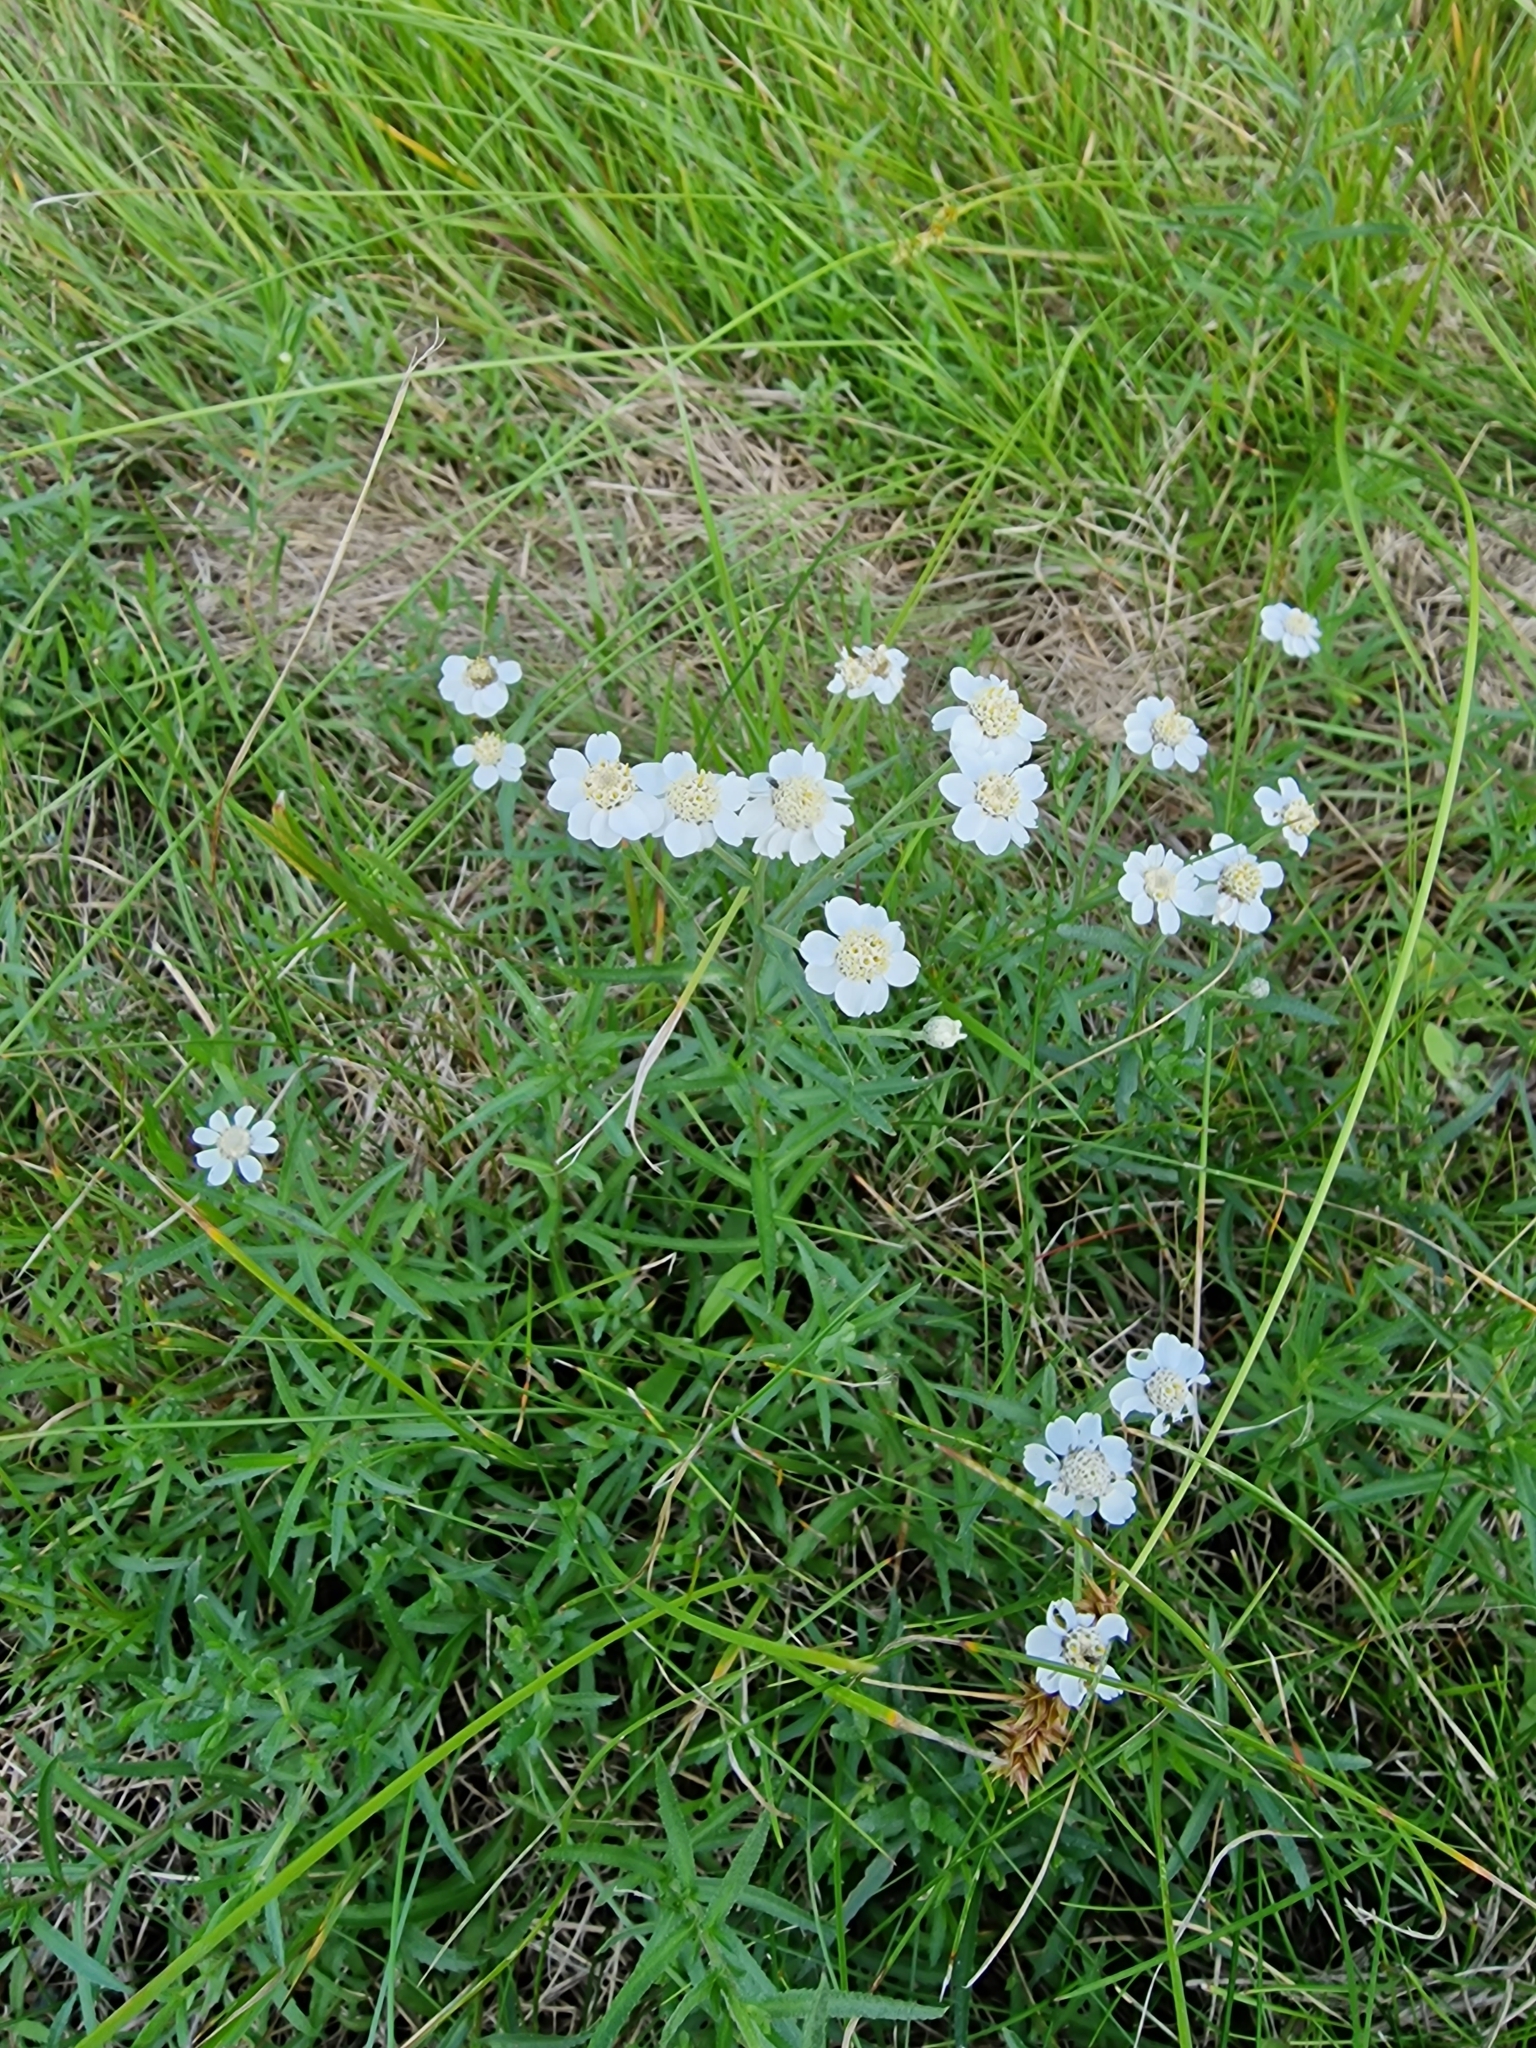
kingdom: Plantae
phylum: Tracheophyta
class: Magnoliopsida
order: Asterales
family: Asteraceae
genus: Achillea
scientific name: Achillea ptarmica
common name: Sneezeweed
